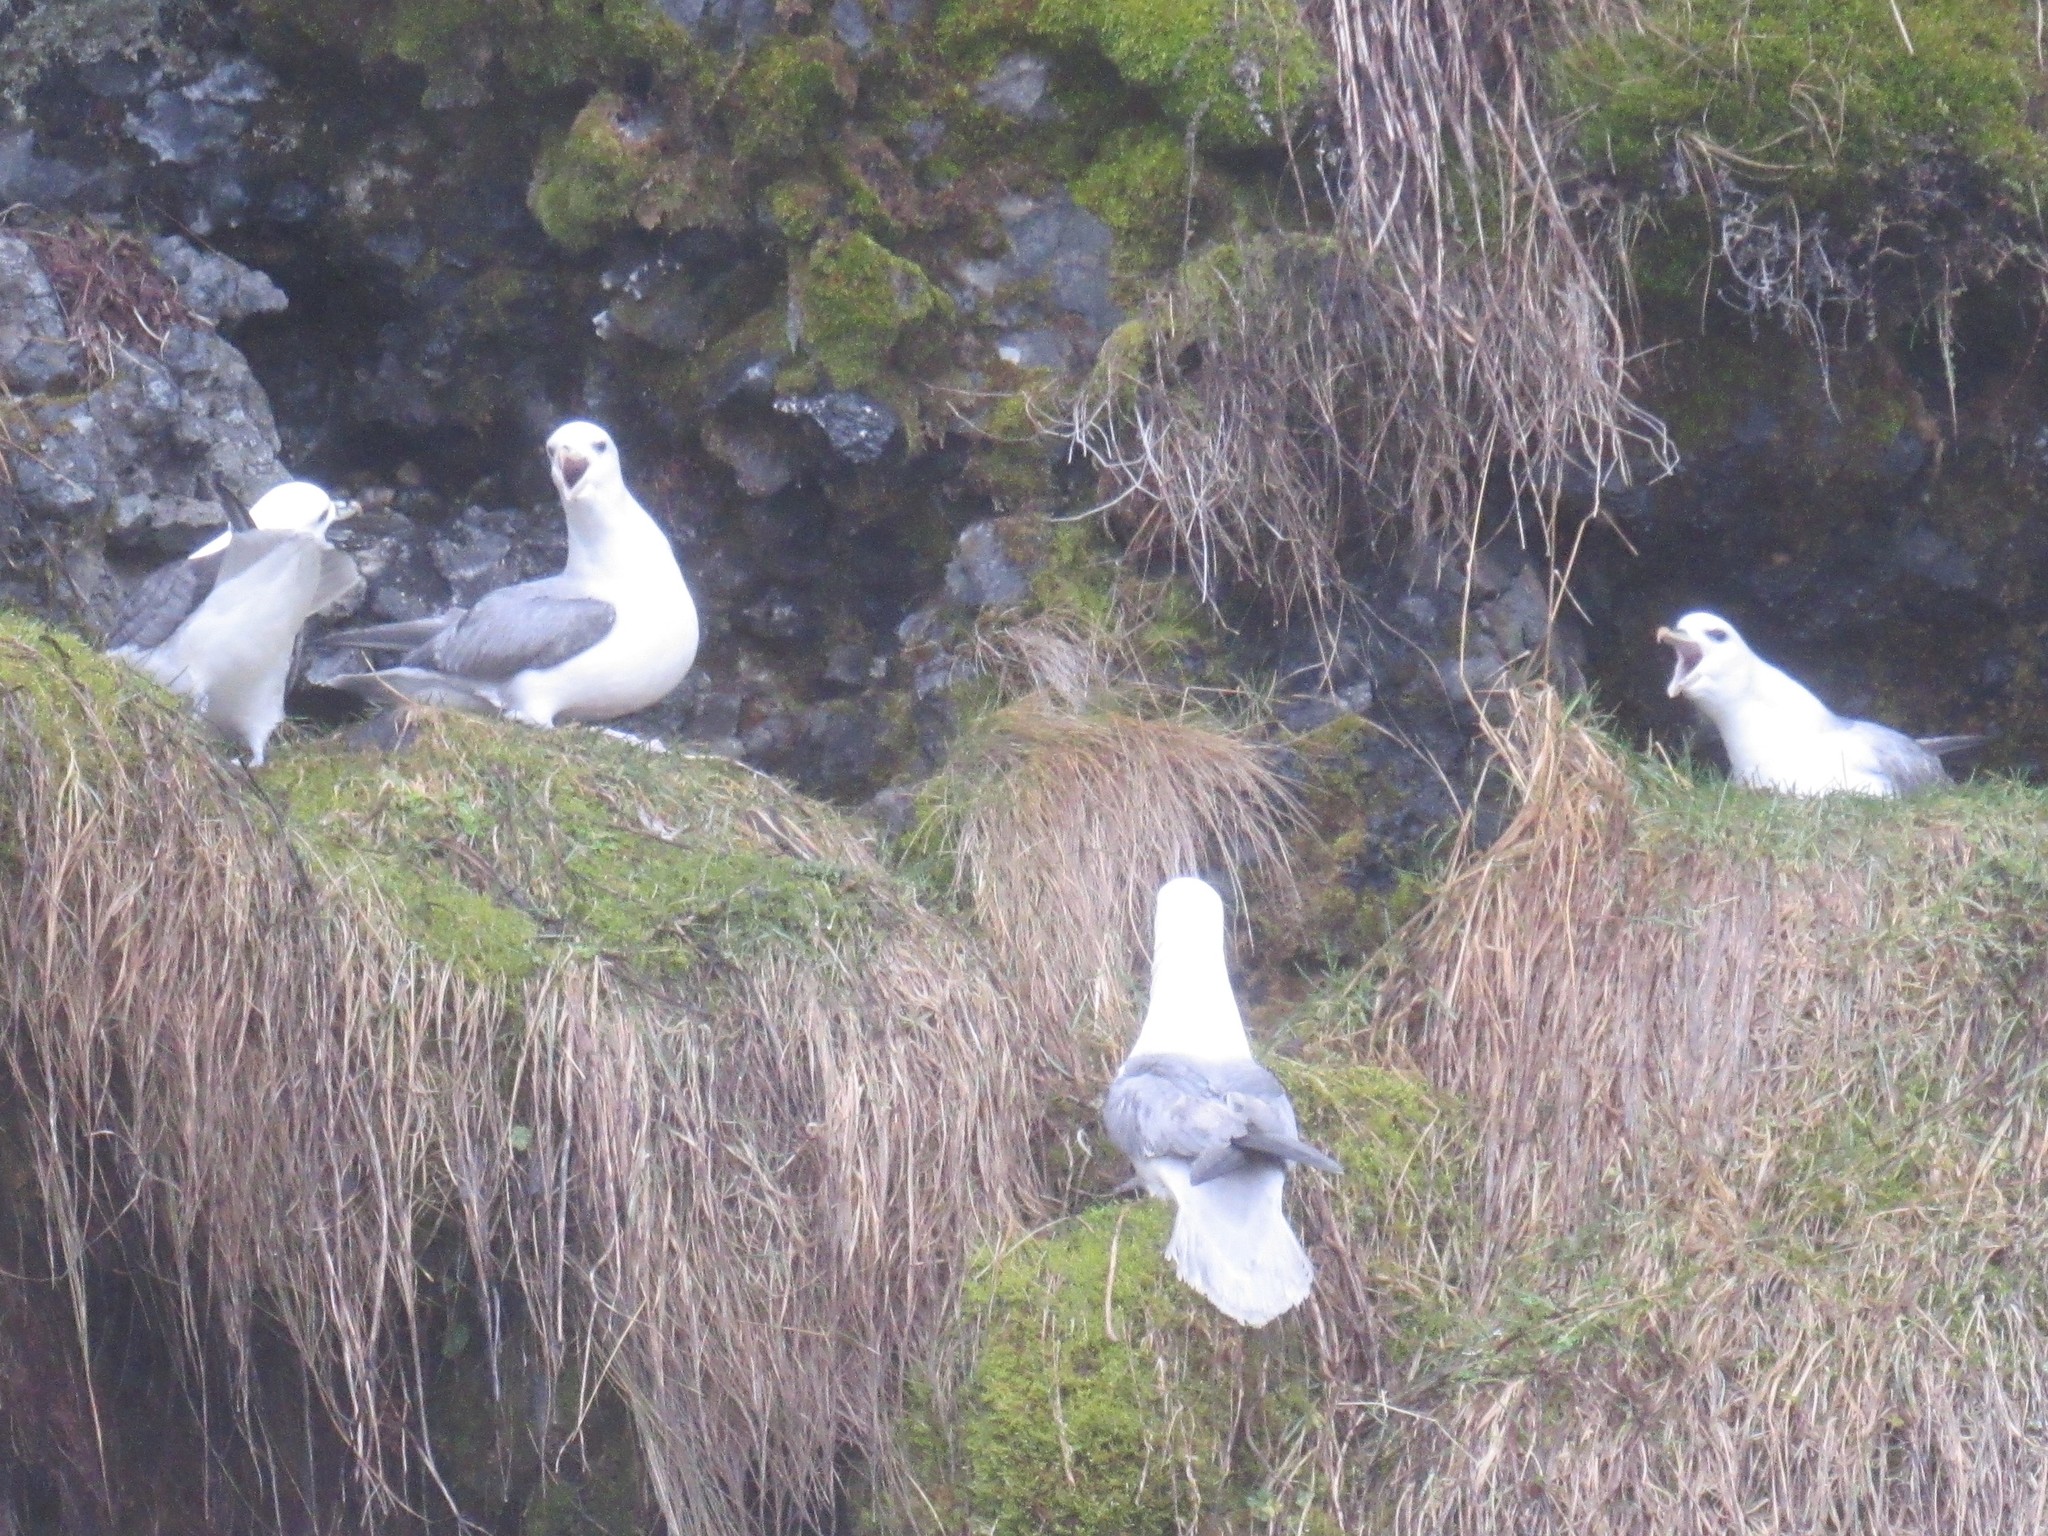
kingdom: Animalia
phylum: Chordata
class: Aves
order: Procellariiformes
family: Procellariidae
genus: Fulmarus
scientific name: Fulmarus glacialis
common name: Northern fulmar
